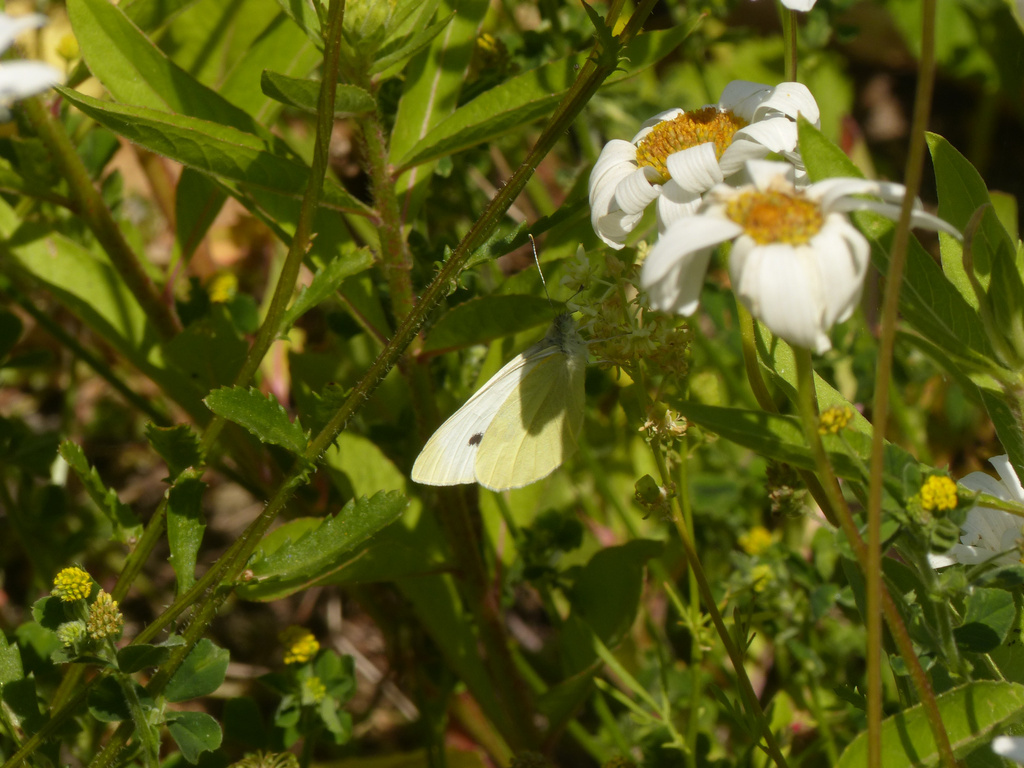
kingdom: Animalia
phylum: Arthropoda
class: Insecta
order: Lepidoptera
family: Pieridae
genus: Pieris
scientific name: Pieris rapae
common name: Small white
